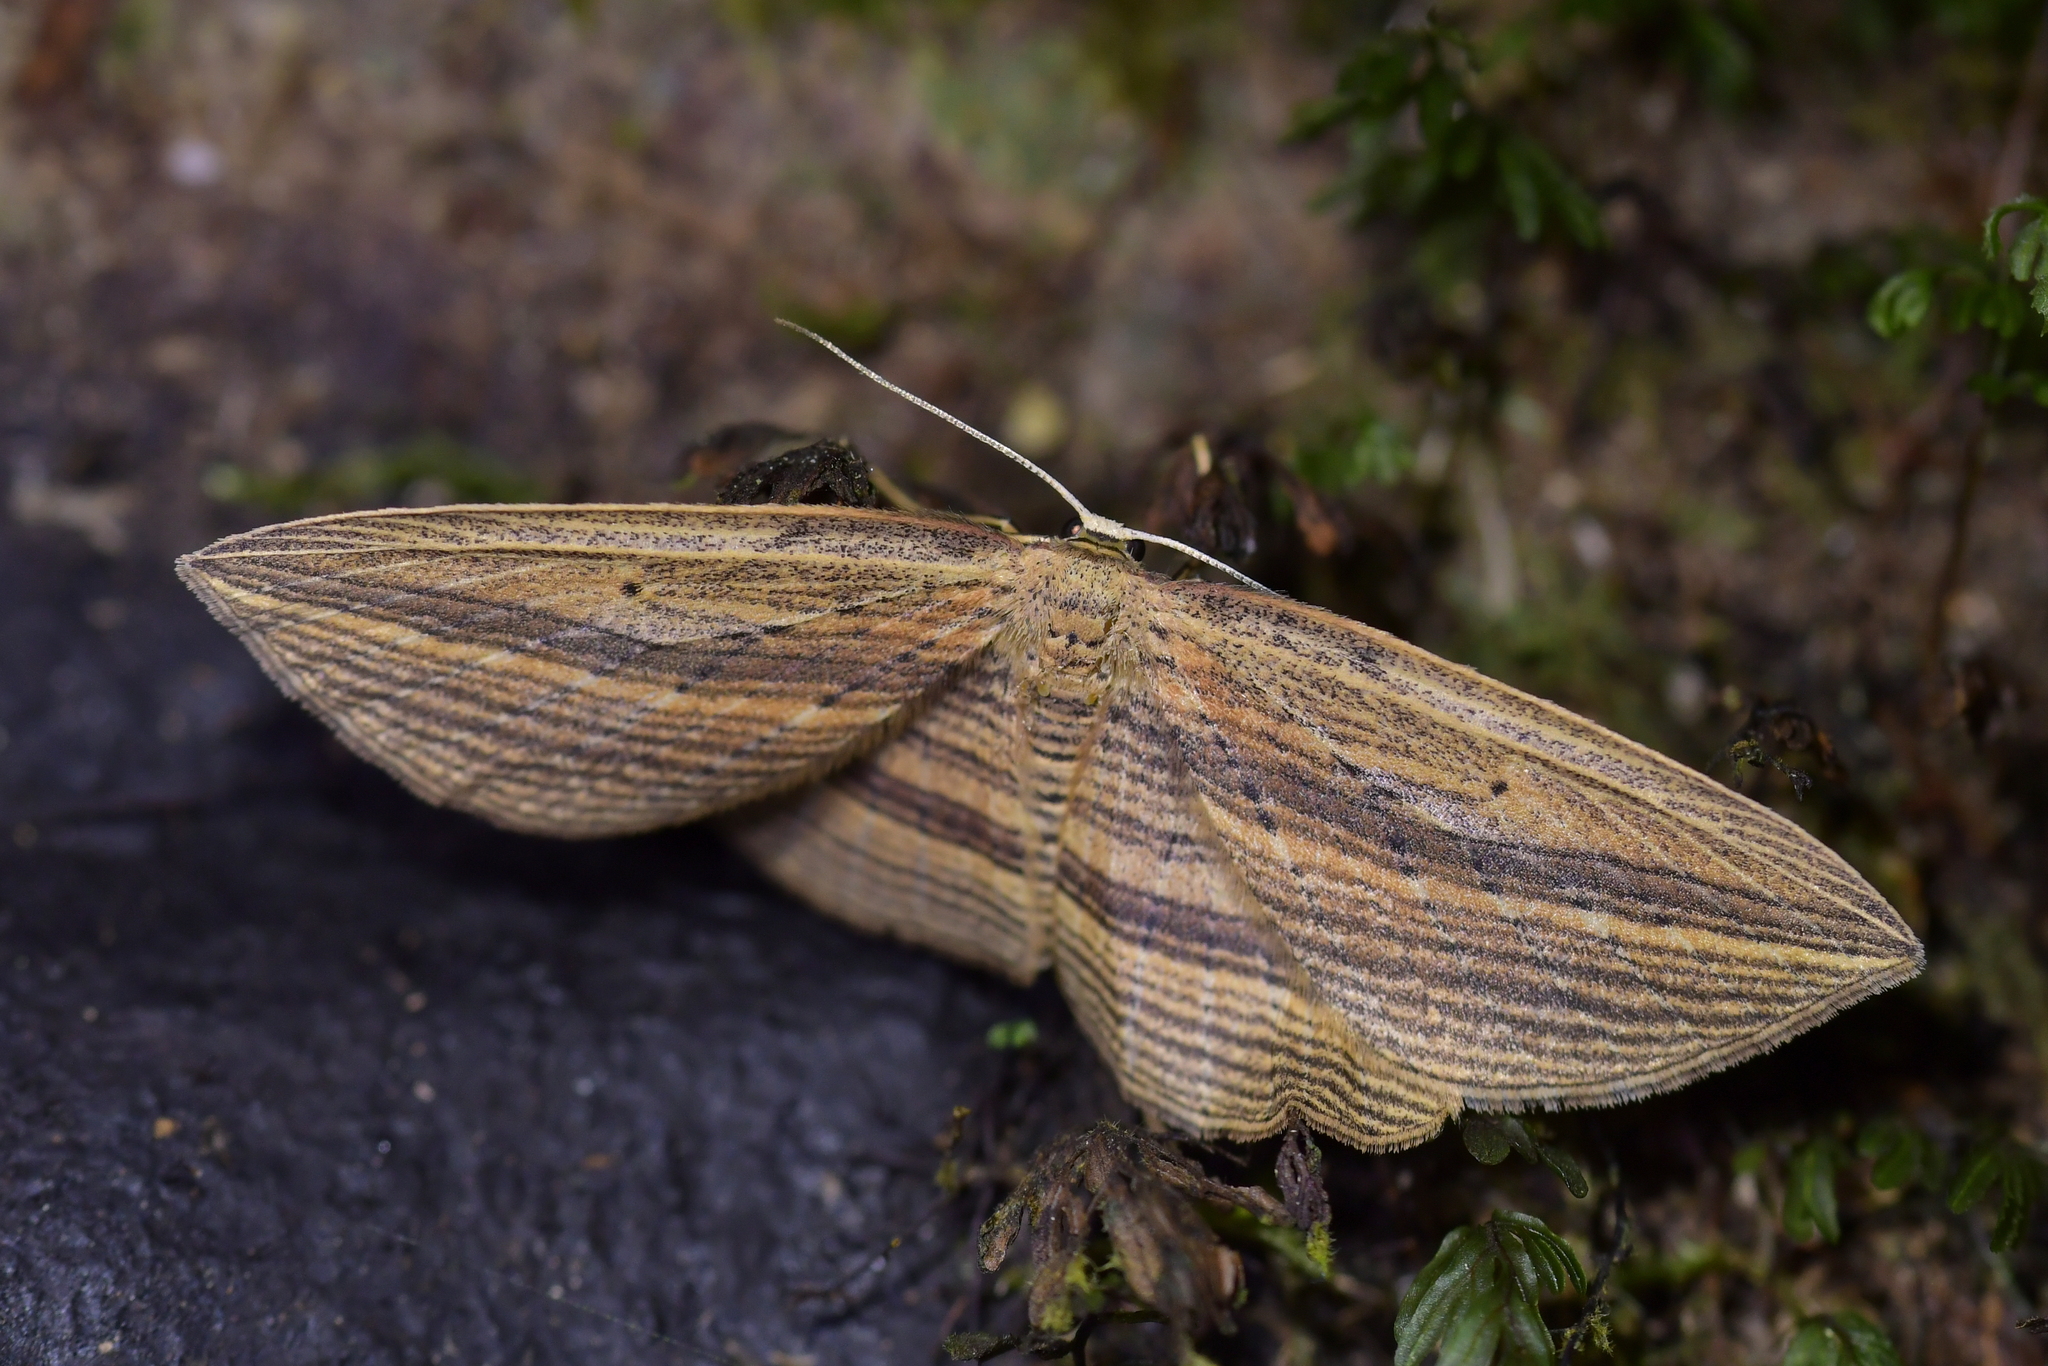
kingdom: Animalia
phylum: Arthropoda
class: Insecta
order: Lepidoptera
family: Geometridae
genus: Epiphryne
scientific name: Epiphryne verriculata
